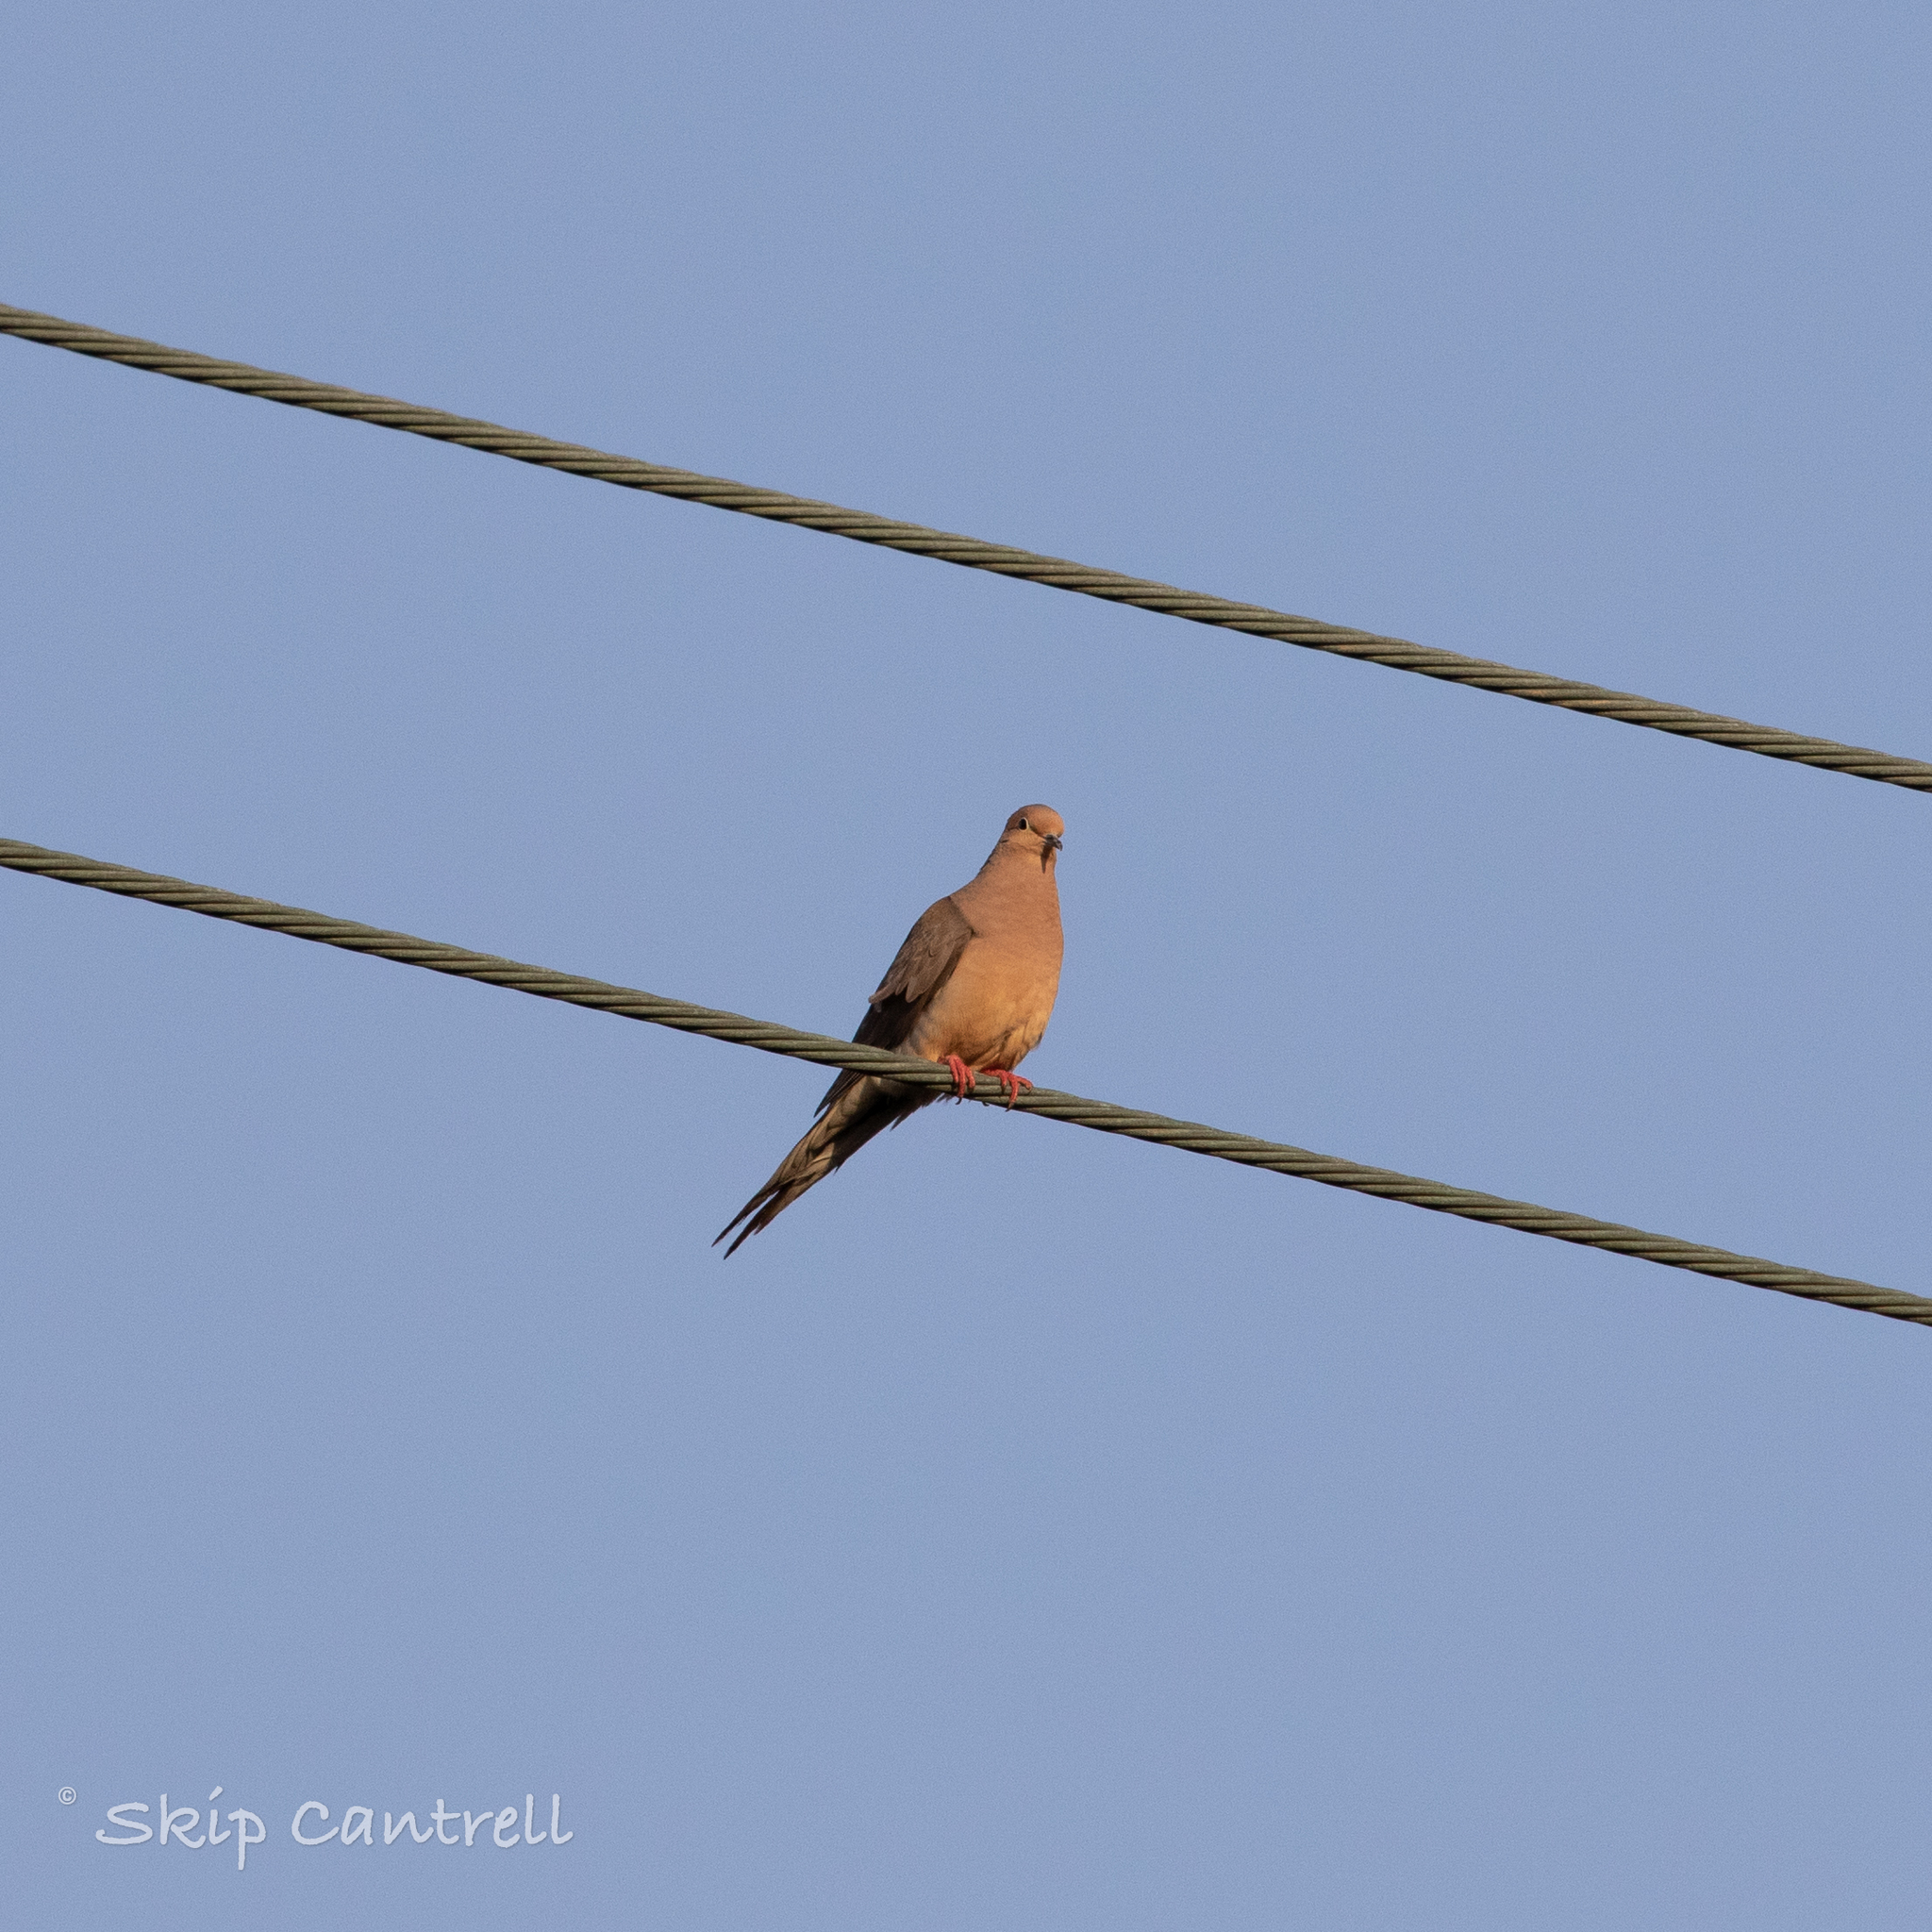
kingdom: Animalia
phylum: Chordata
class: Aves
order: Columbiformes
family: Columbidae
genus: Zenaida
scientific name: Zenaida macroura
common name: Mourning dove
